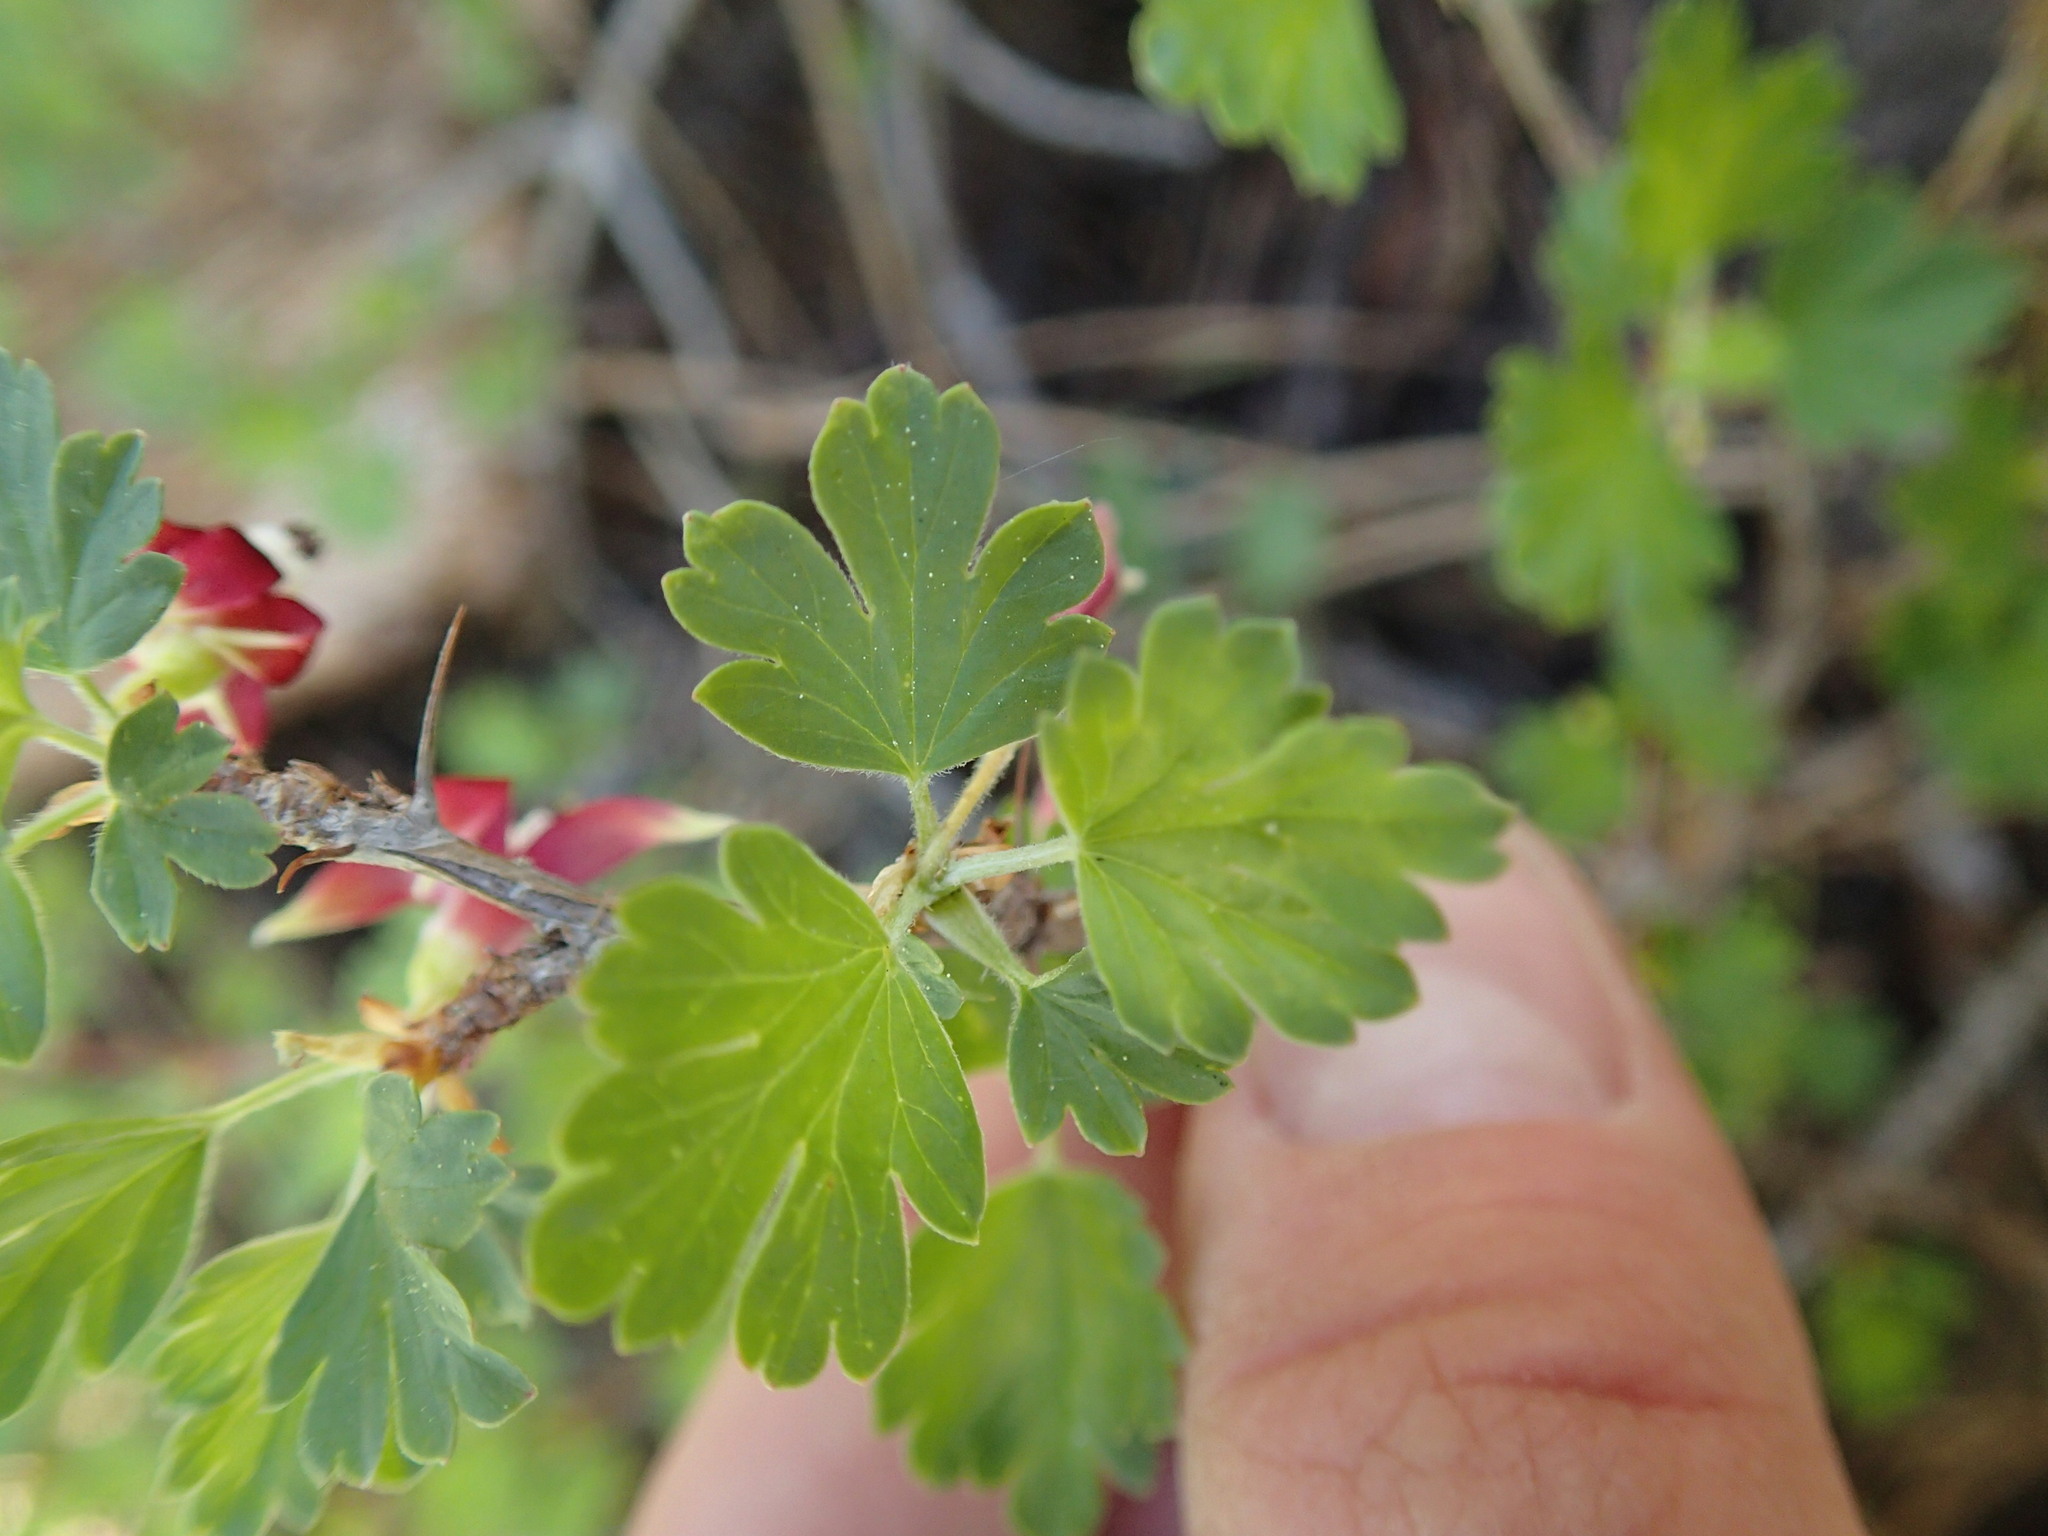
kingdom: Plantae
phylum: Tracheophyta
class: Magnoliopsida
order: Saxifragales
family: Grossulariaceae
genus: Ribes
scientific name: Ribes roezlii
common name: Sierra gooseberry
